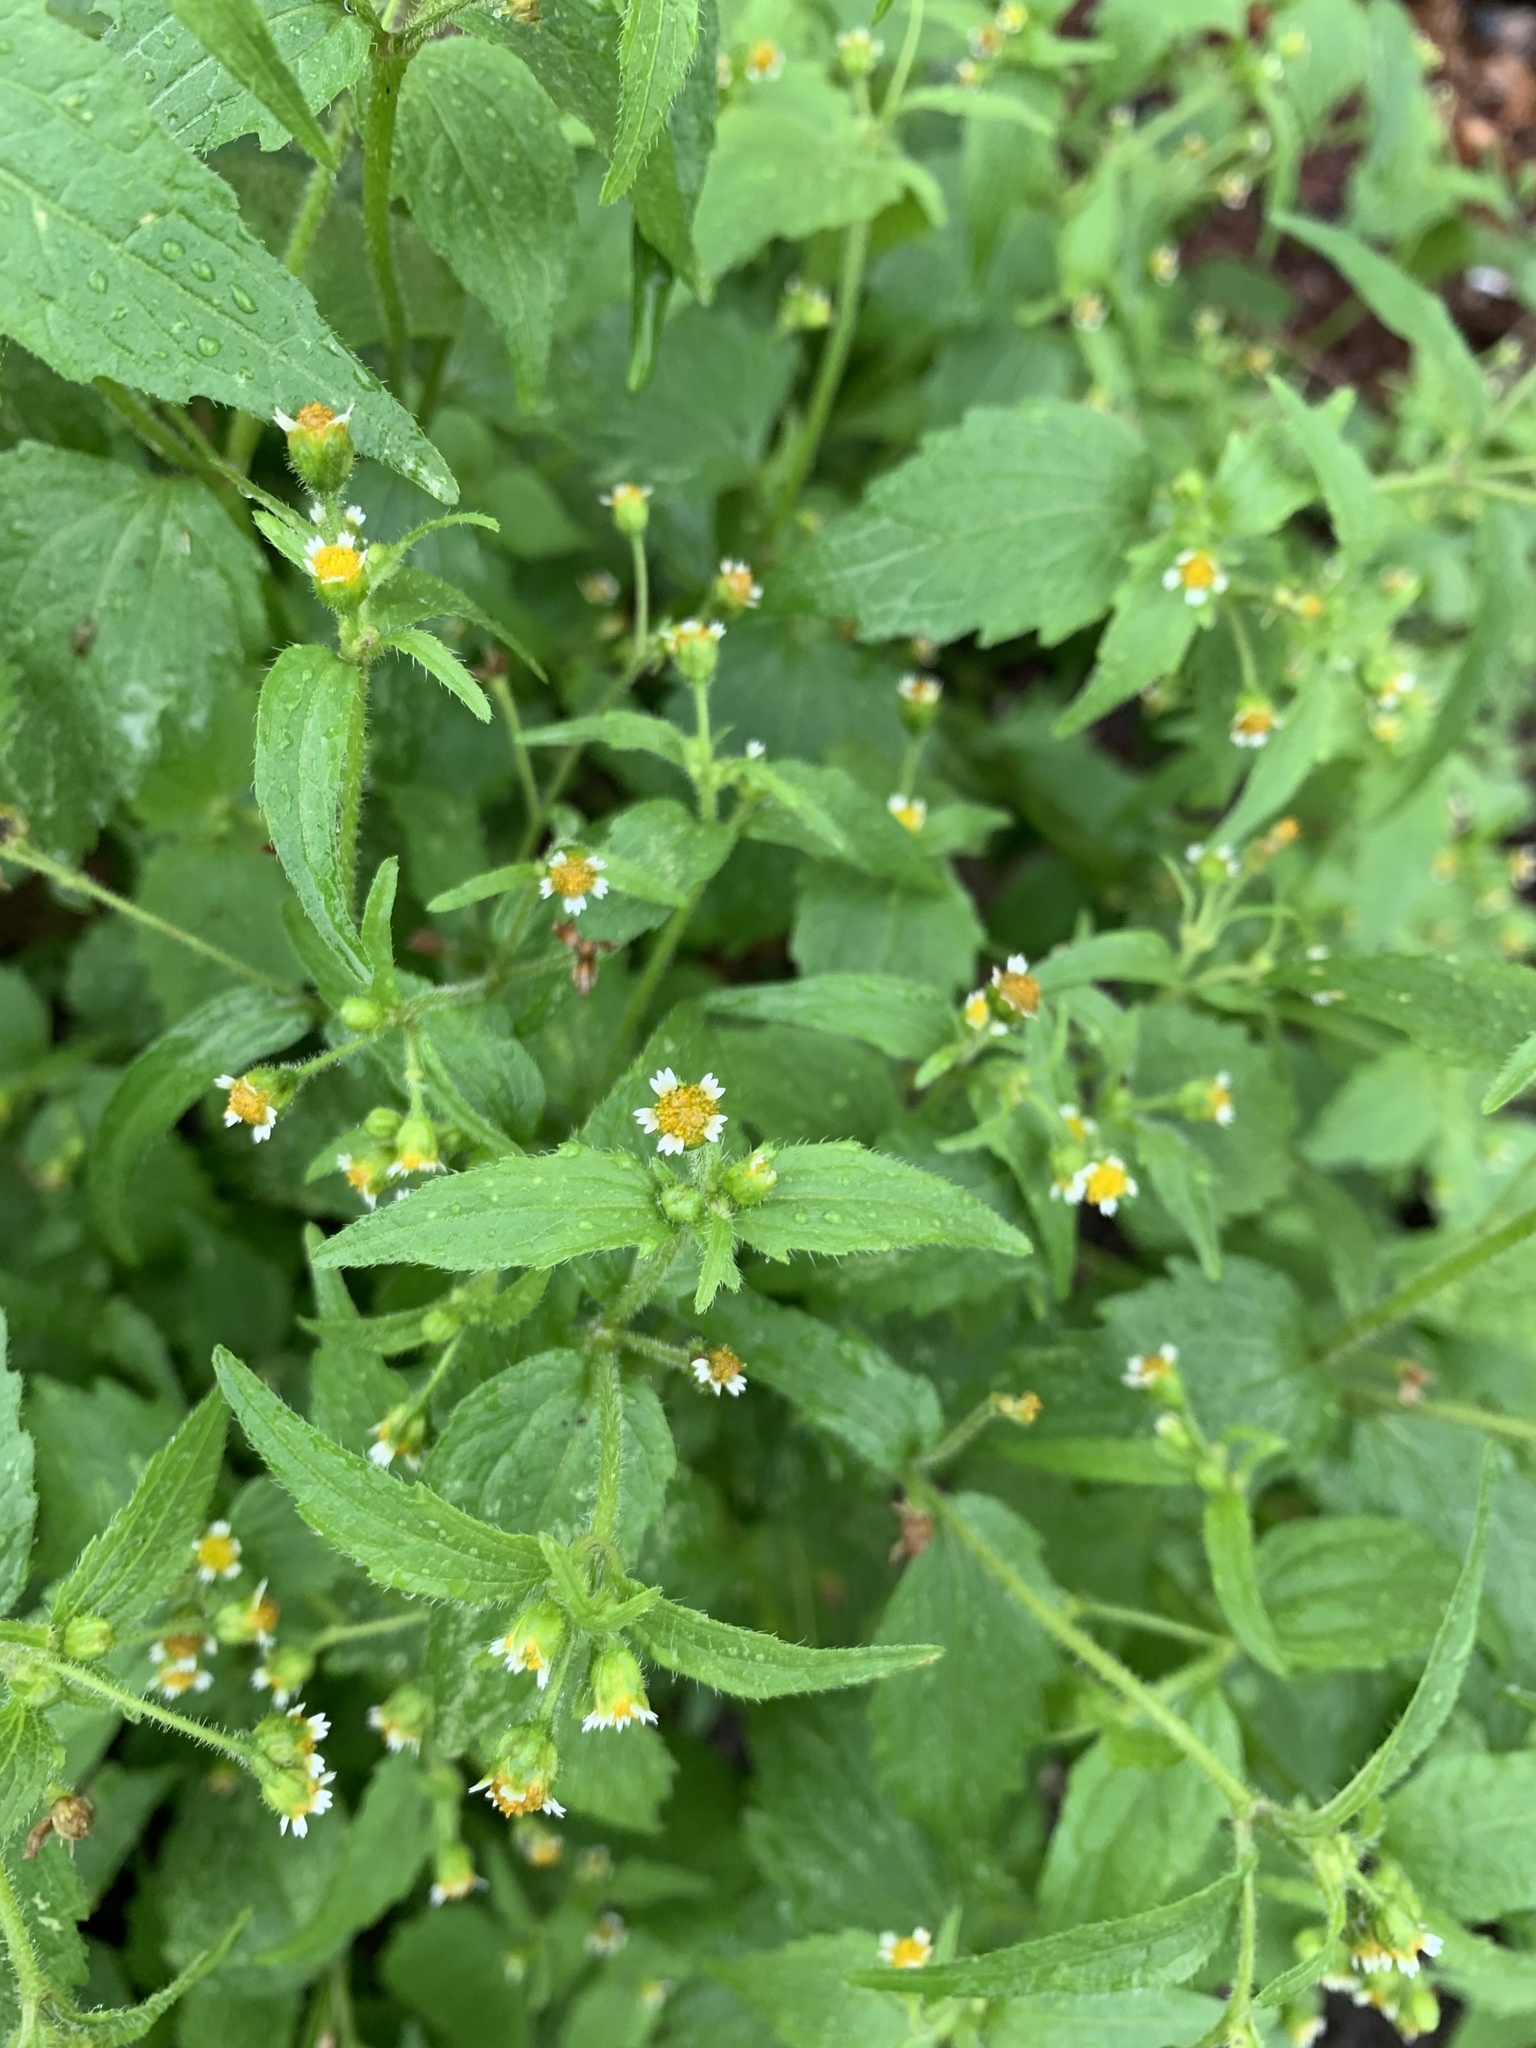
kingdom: Plantae
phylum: Tracheophyta
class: Magnoliopsida
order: Asterales
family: Asteraceae
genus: Galinsoga
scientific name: Galinsoga quadriradiata
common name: Shaggy soldier
